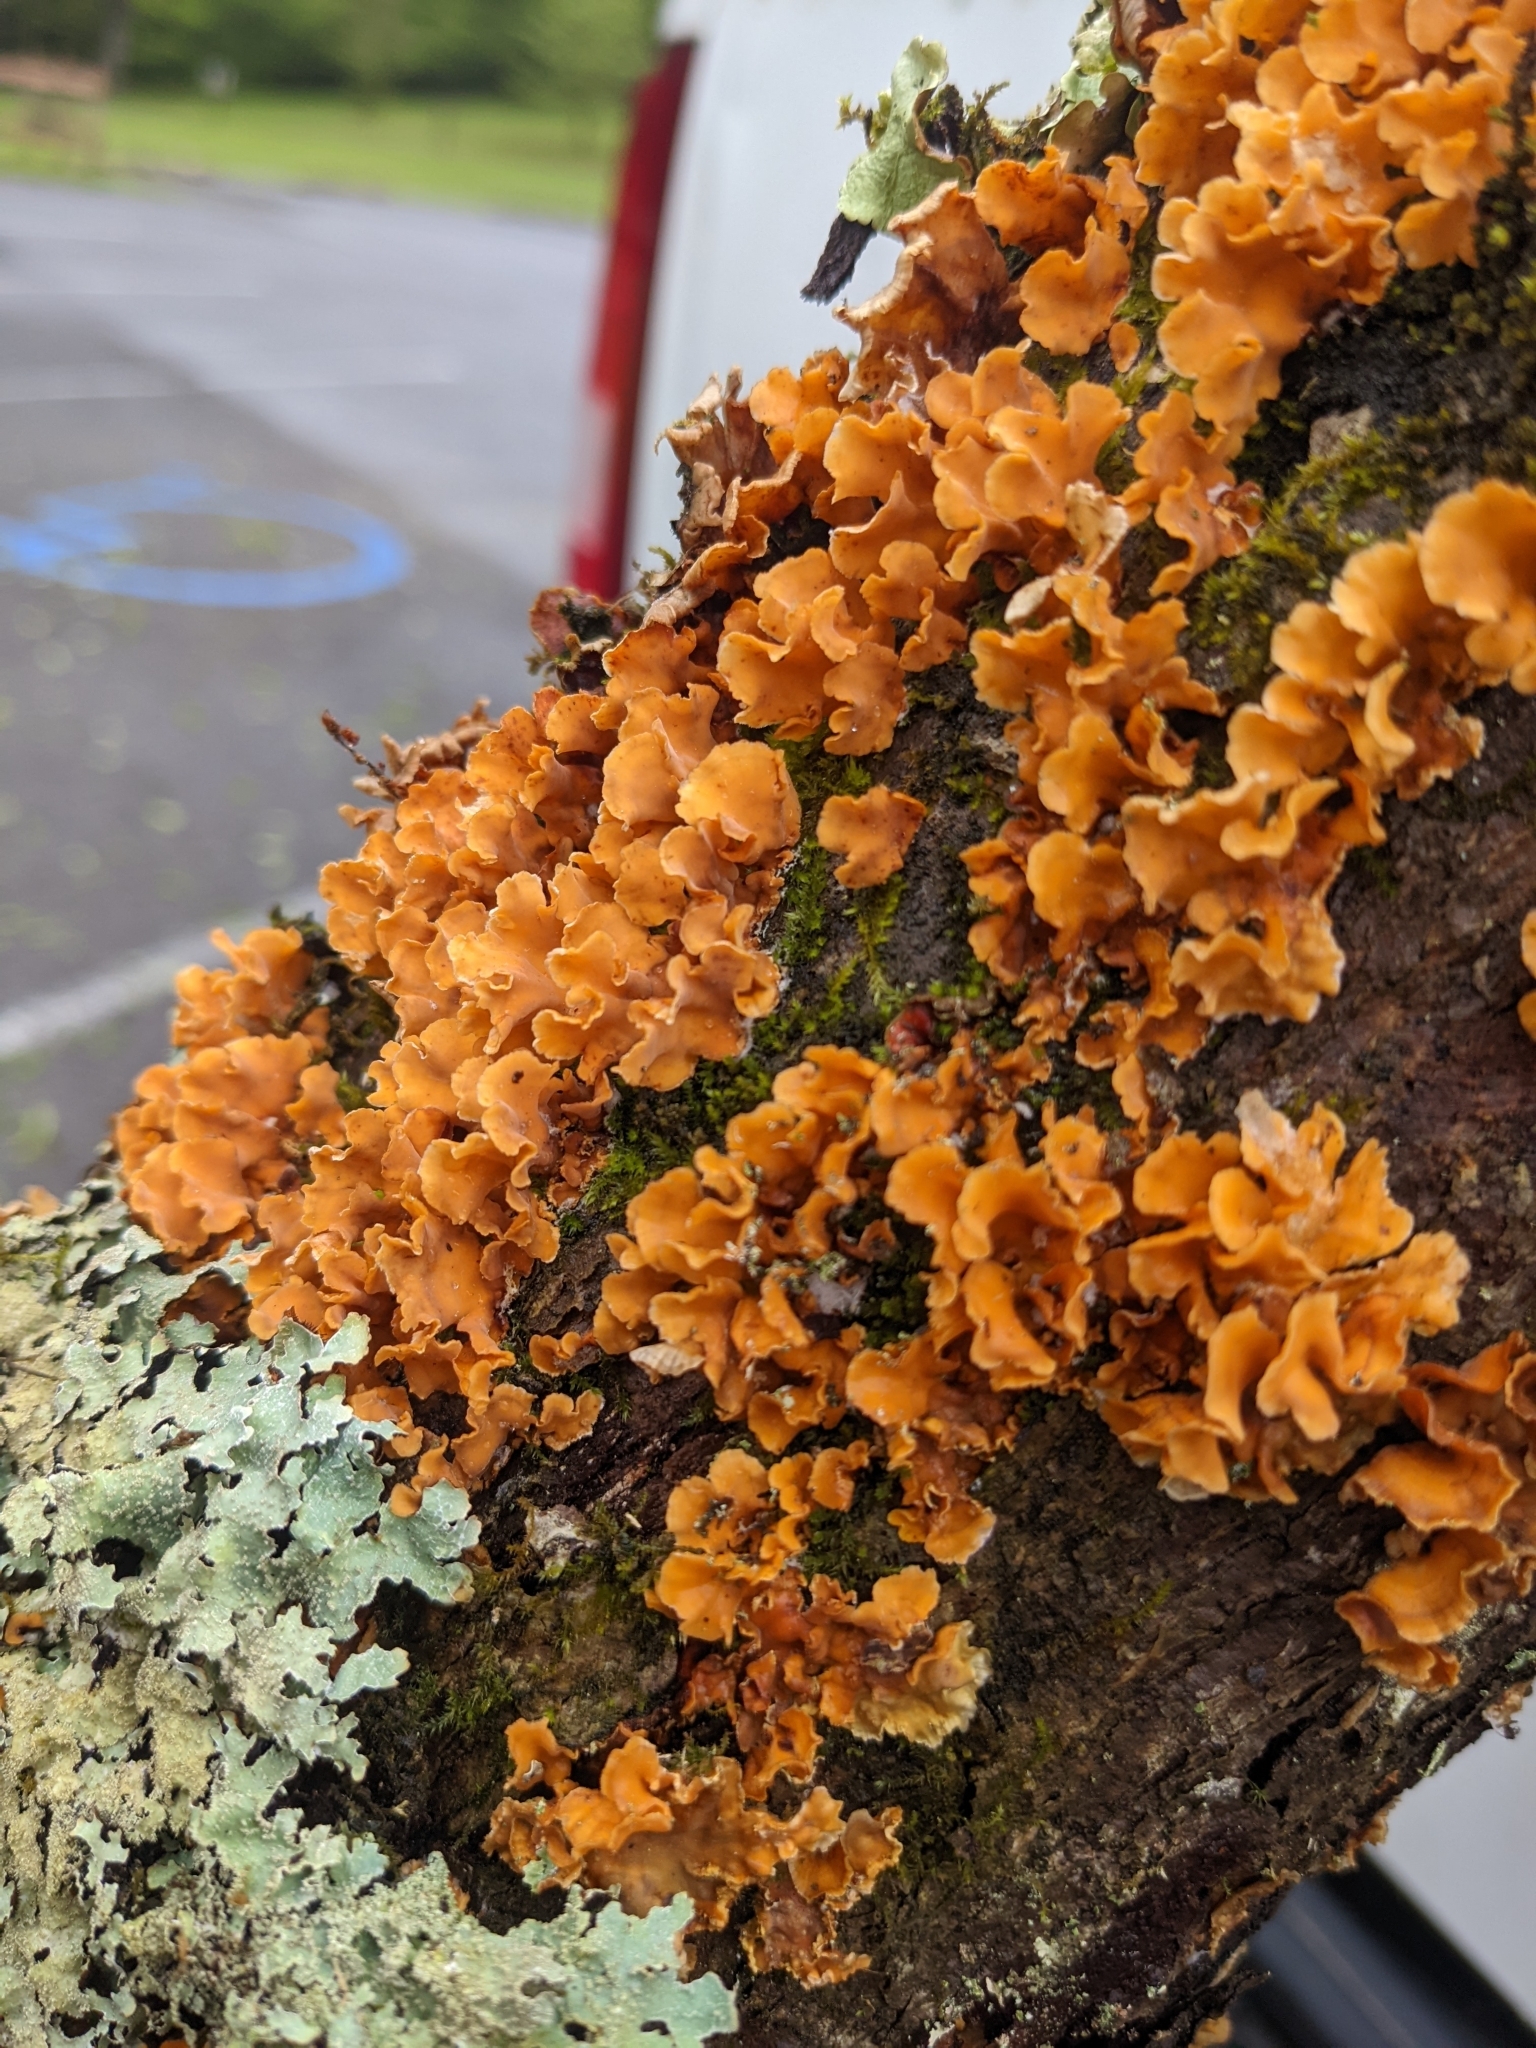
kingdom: Fungi
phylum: Basidiomycota
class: Agaricomycetes
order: Russulales
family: Stereaceae
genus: Stereum
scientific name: Stereum complicatum
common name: Crowded parchment
